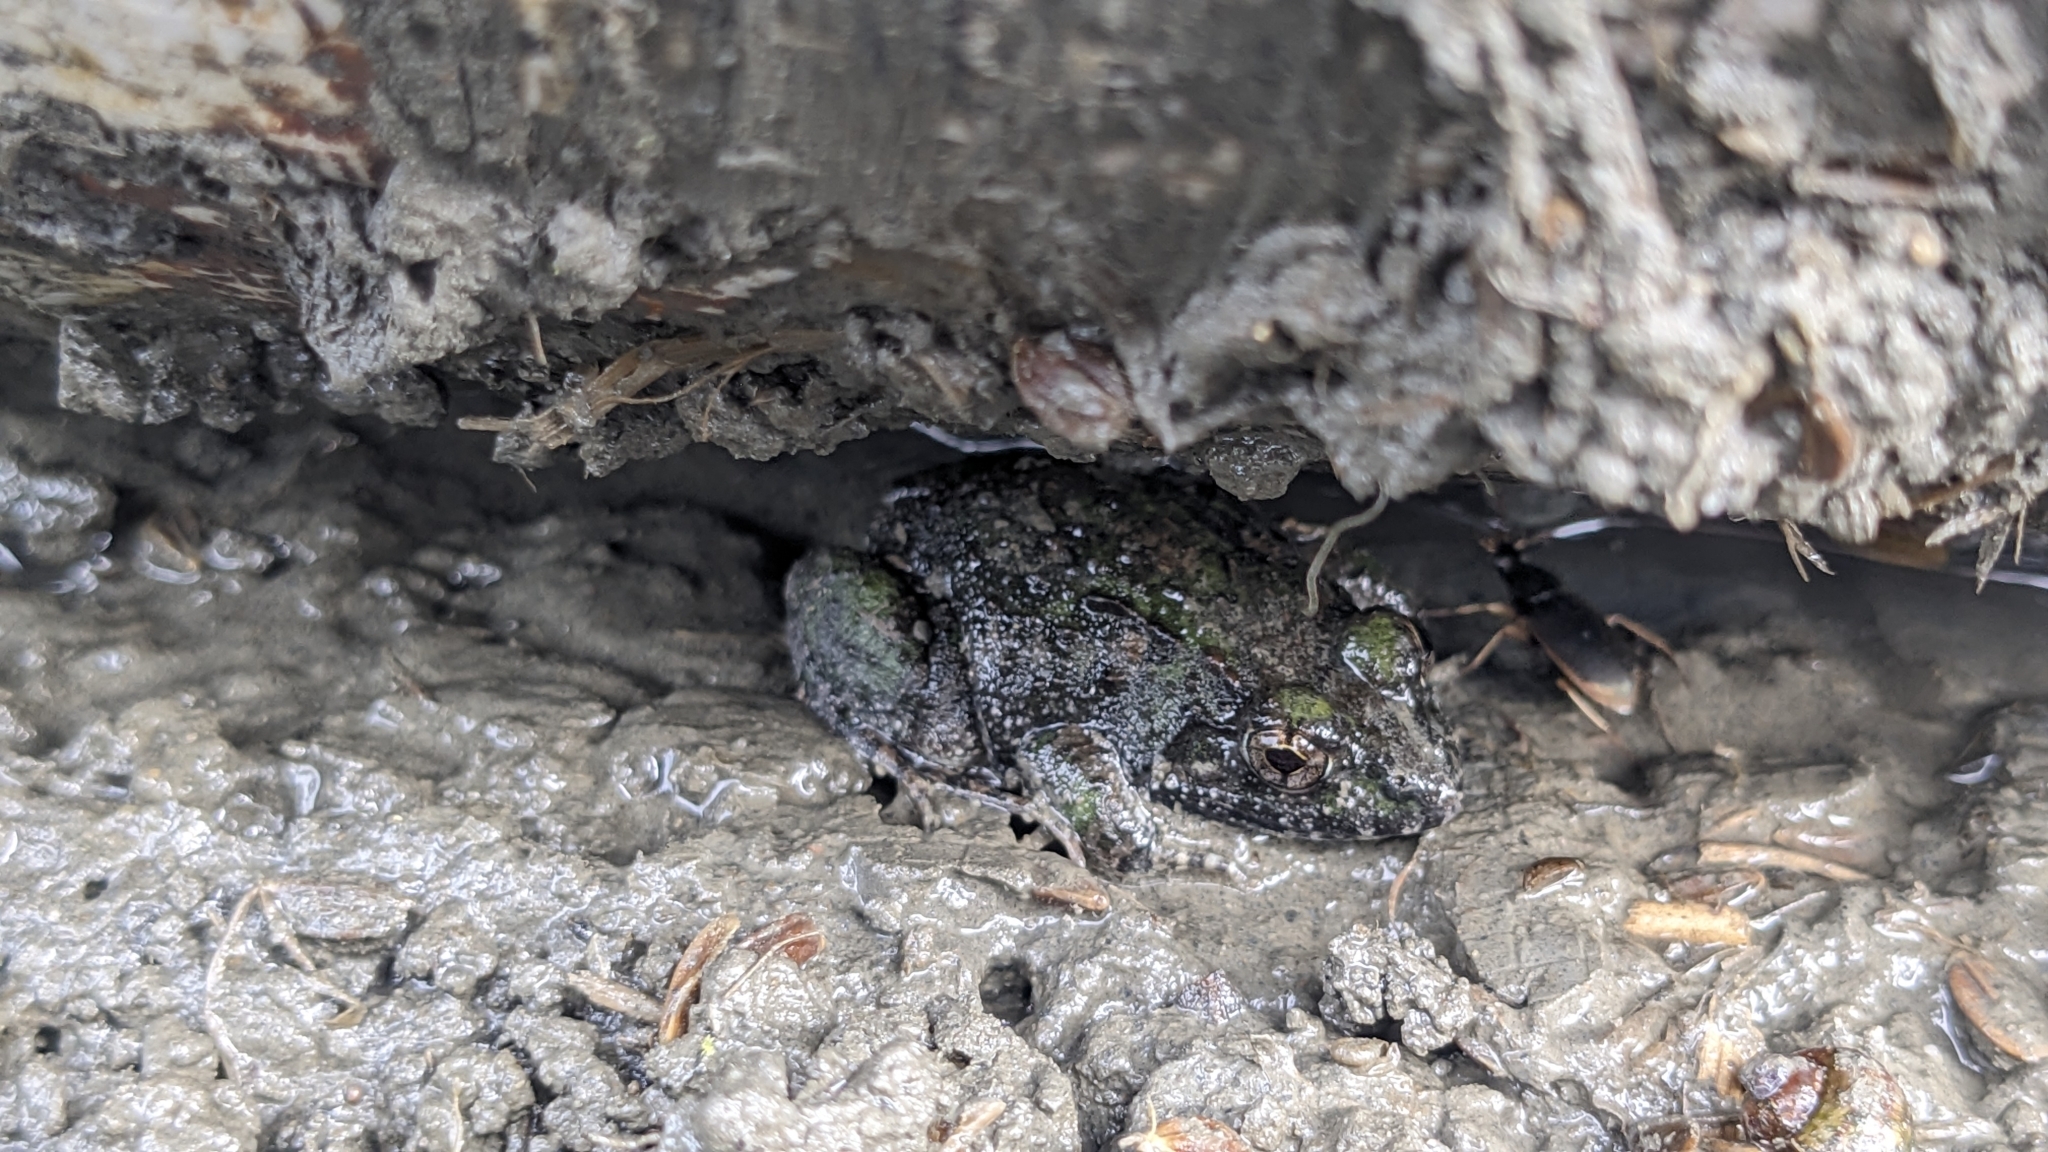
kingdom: Animalia
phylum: Chordata
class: Amphibia
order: Anura
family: Dicroglossidae
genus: Fejervarya
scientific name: Fejervarya limnocharis
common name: Asian grass frog/common pond frog/field frog/grass frog/indian rice frog
